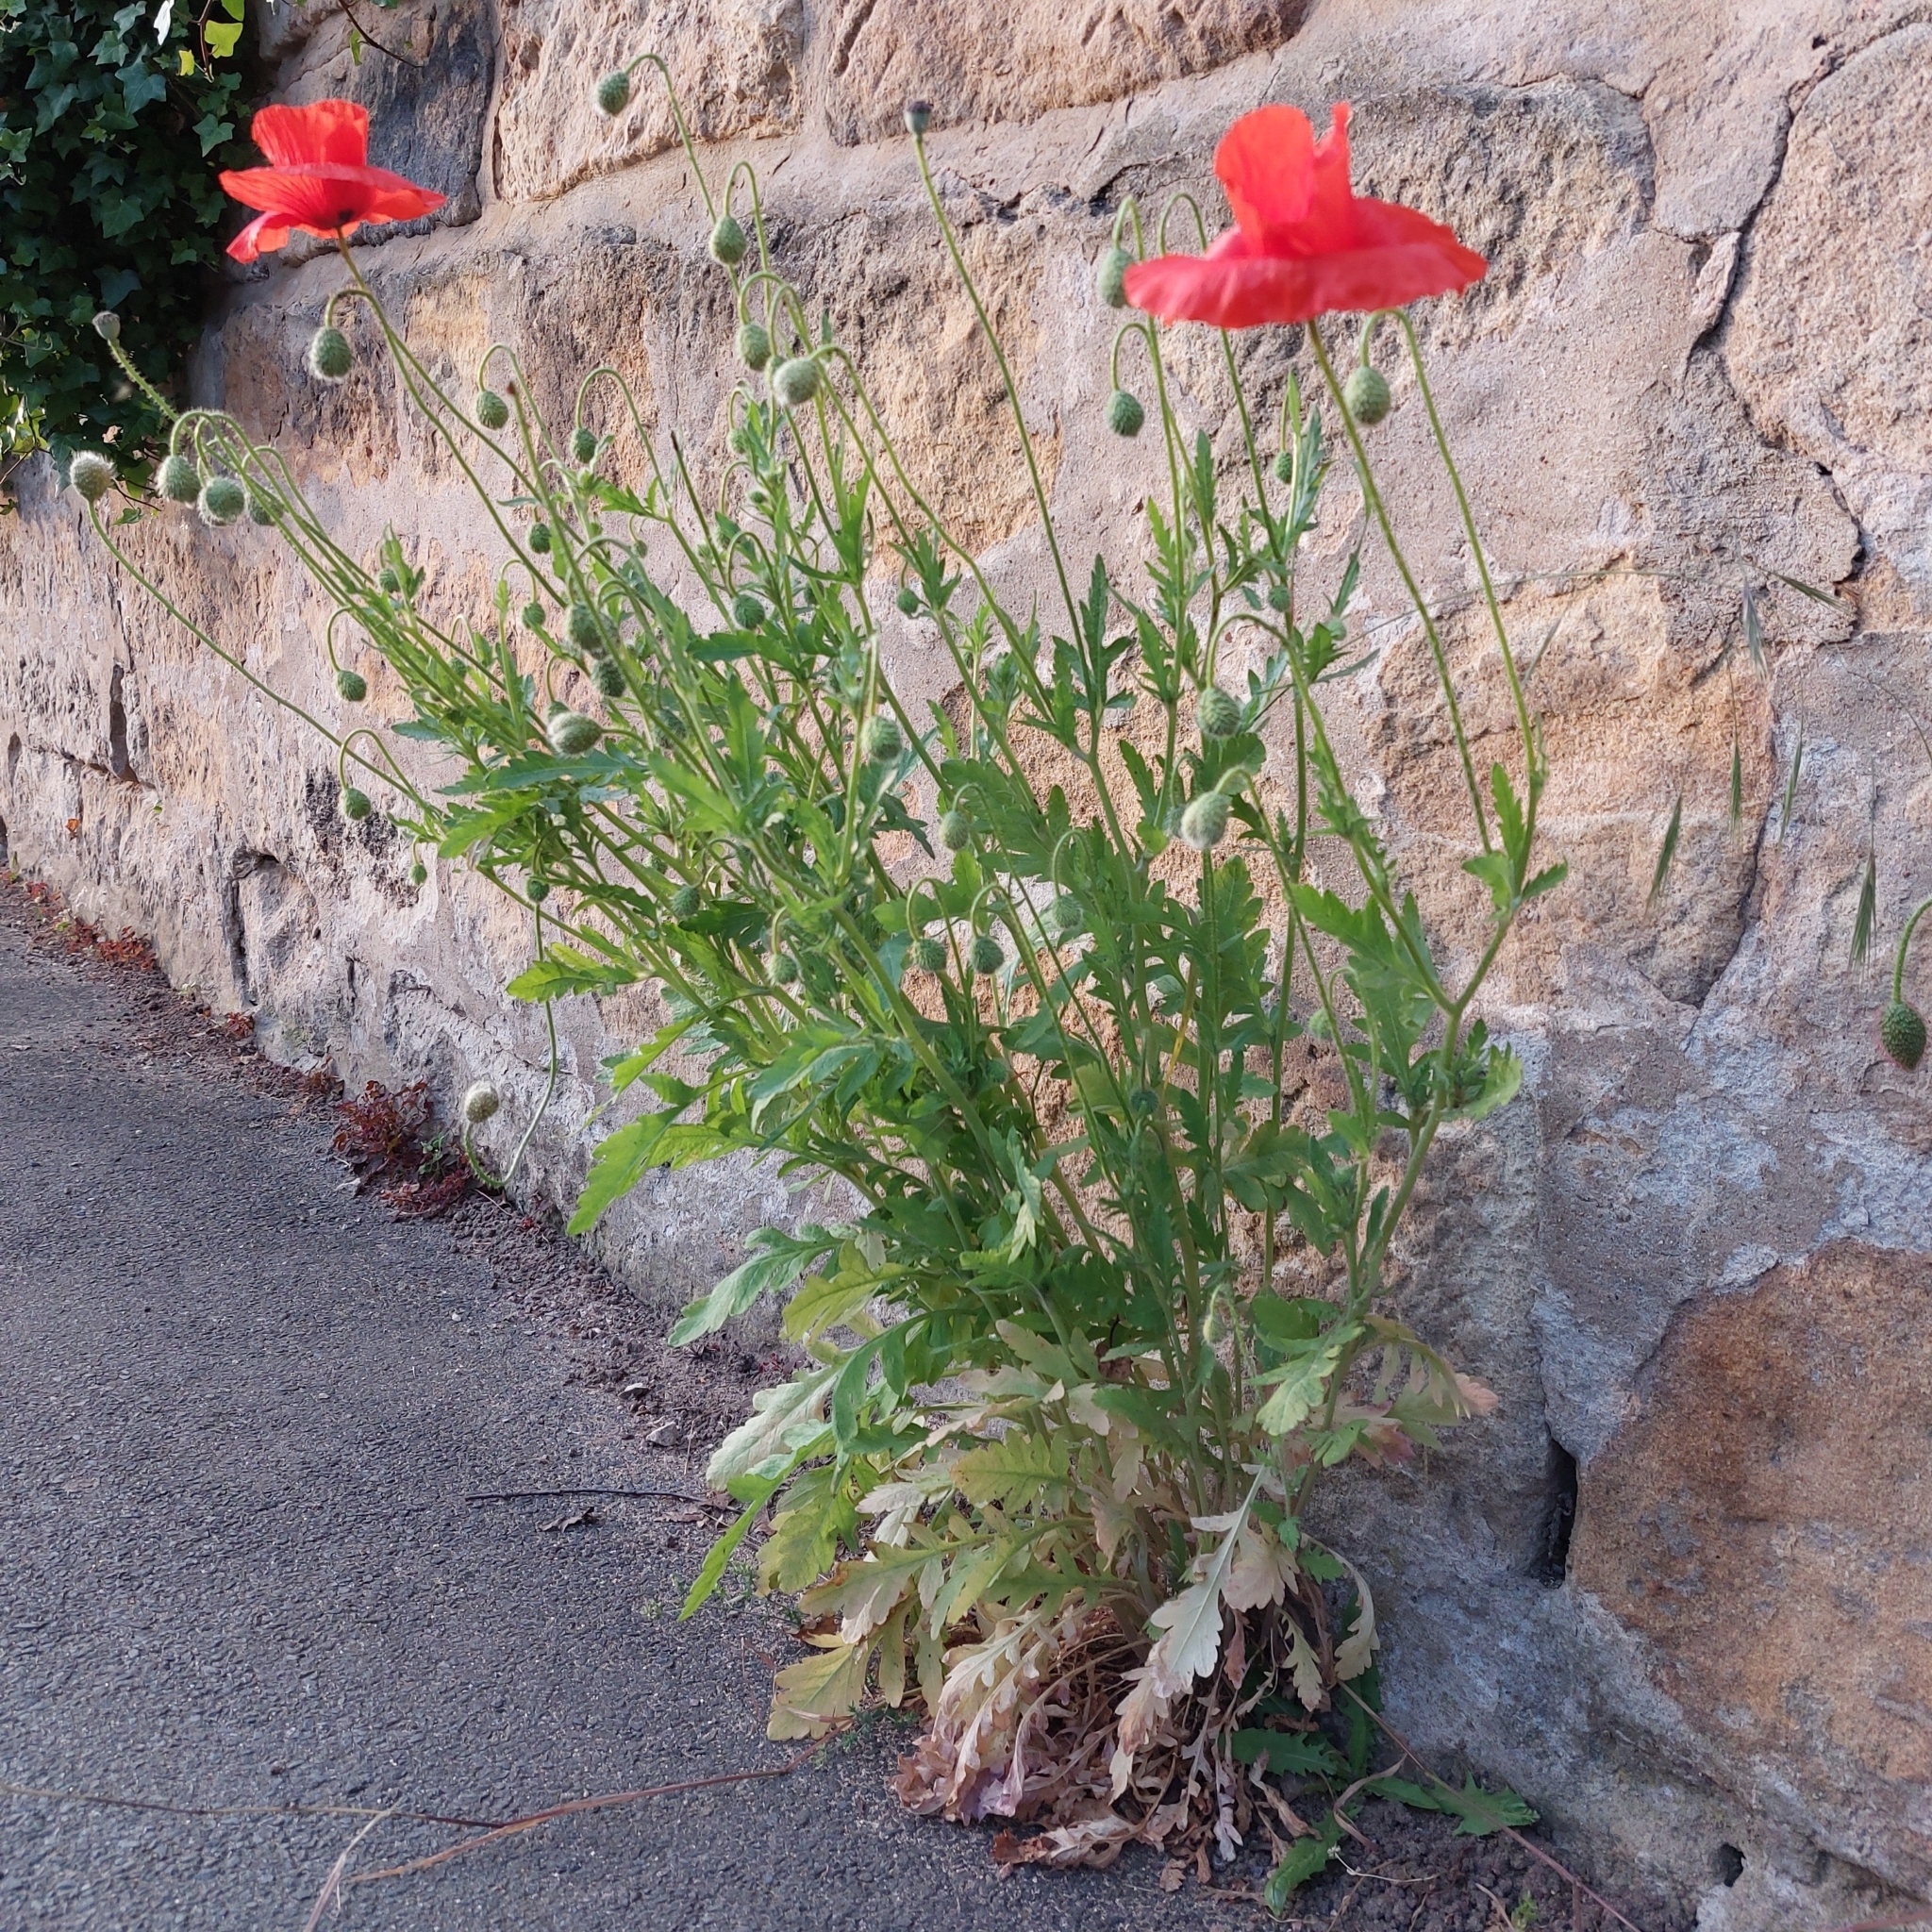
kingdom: Plantae
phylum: Tracheophyta
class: Magnoliopsida
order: Ranunculales
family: Papaveraceae
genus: Papaver
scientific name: Papaver rhoeas
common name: Corn poppy
